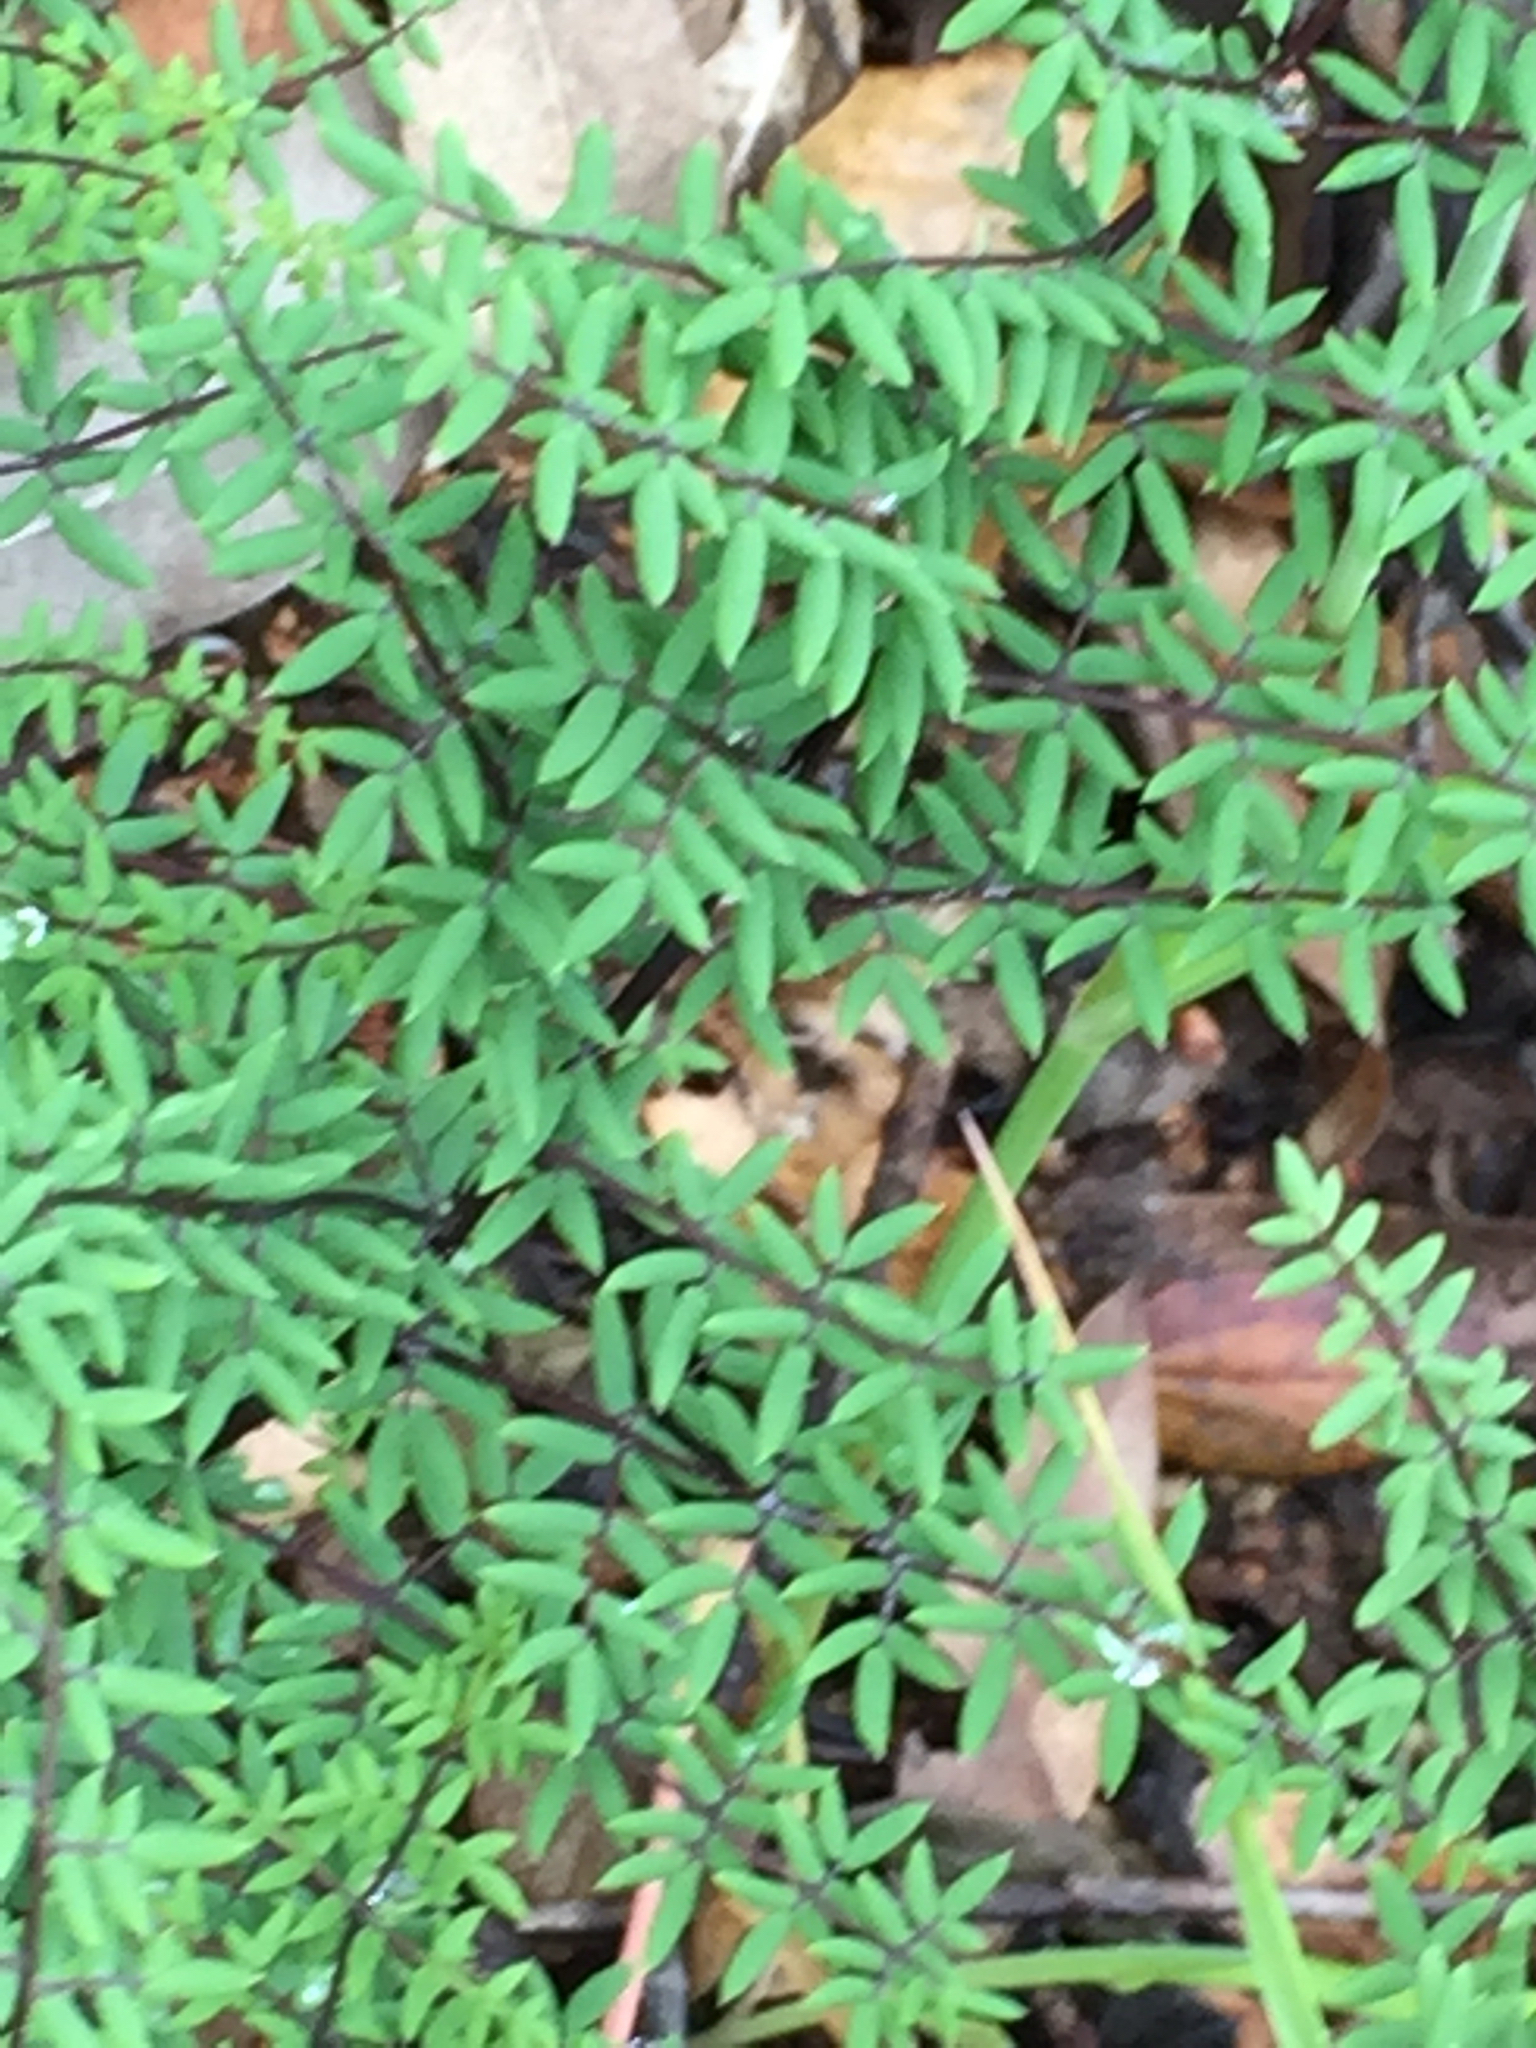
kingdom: Plantae
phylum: Tracheophyta
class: Polypodiopsida
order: Polypodiales
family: Pteridaceae
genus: Pellaea
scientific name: Pellaea mucronata
